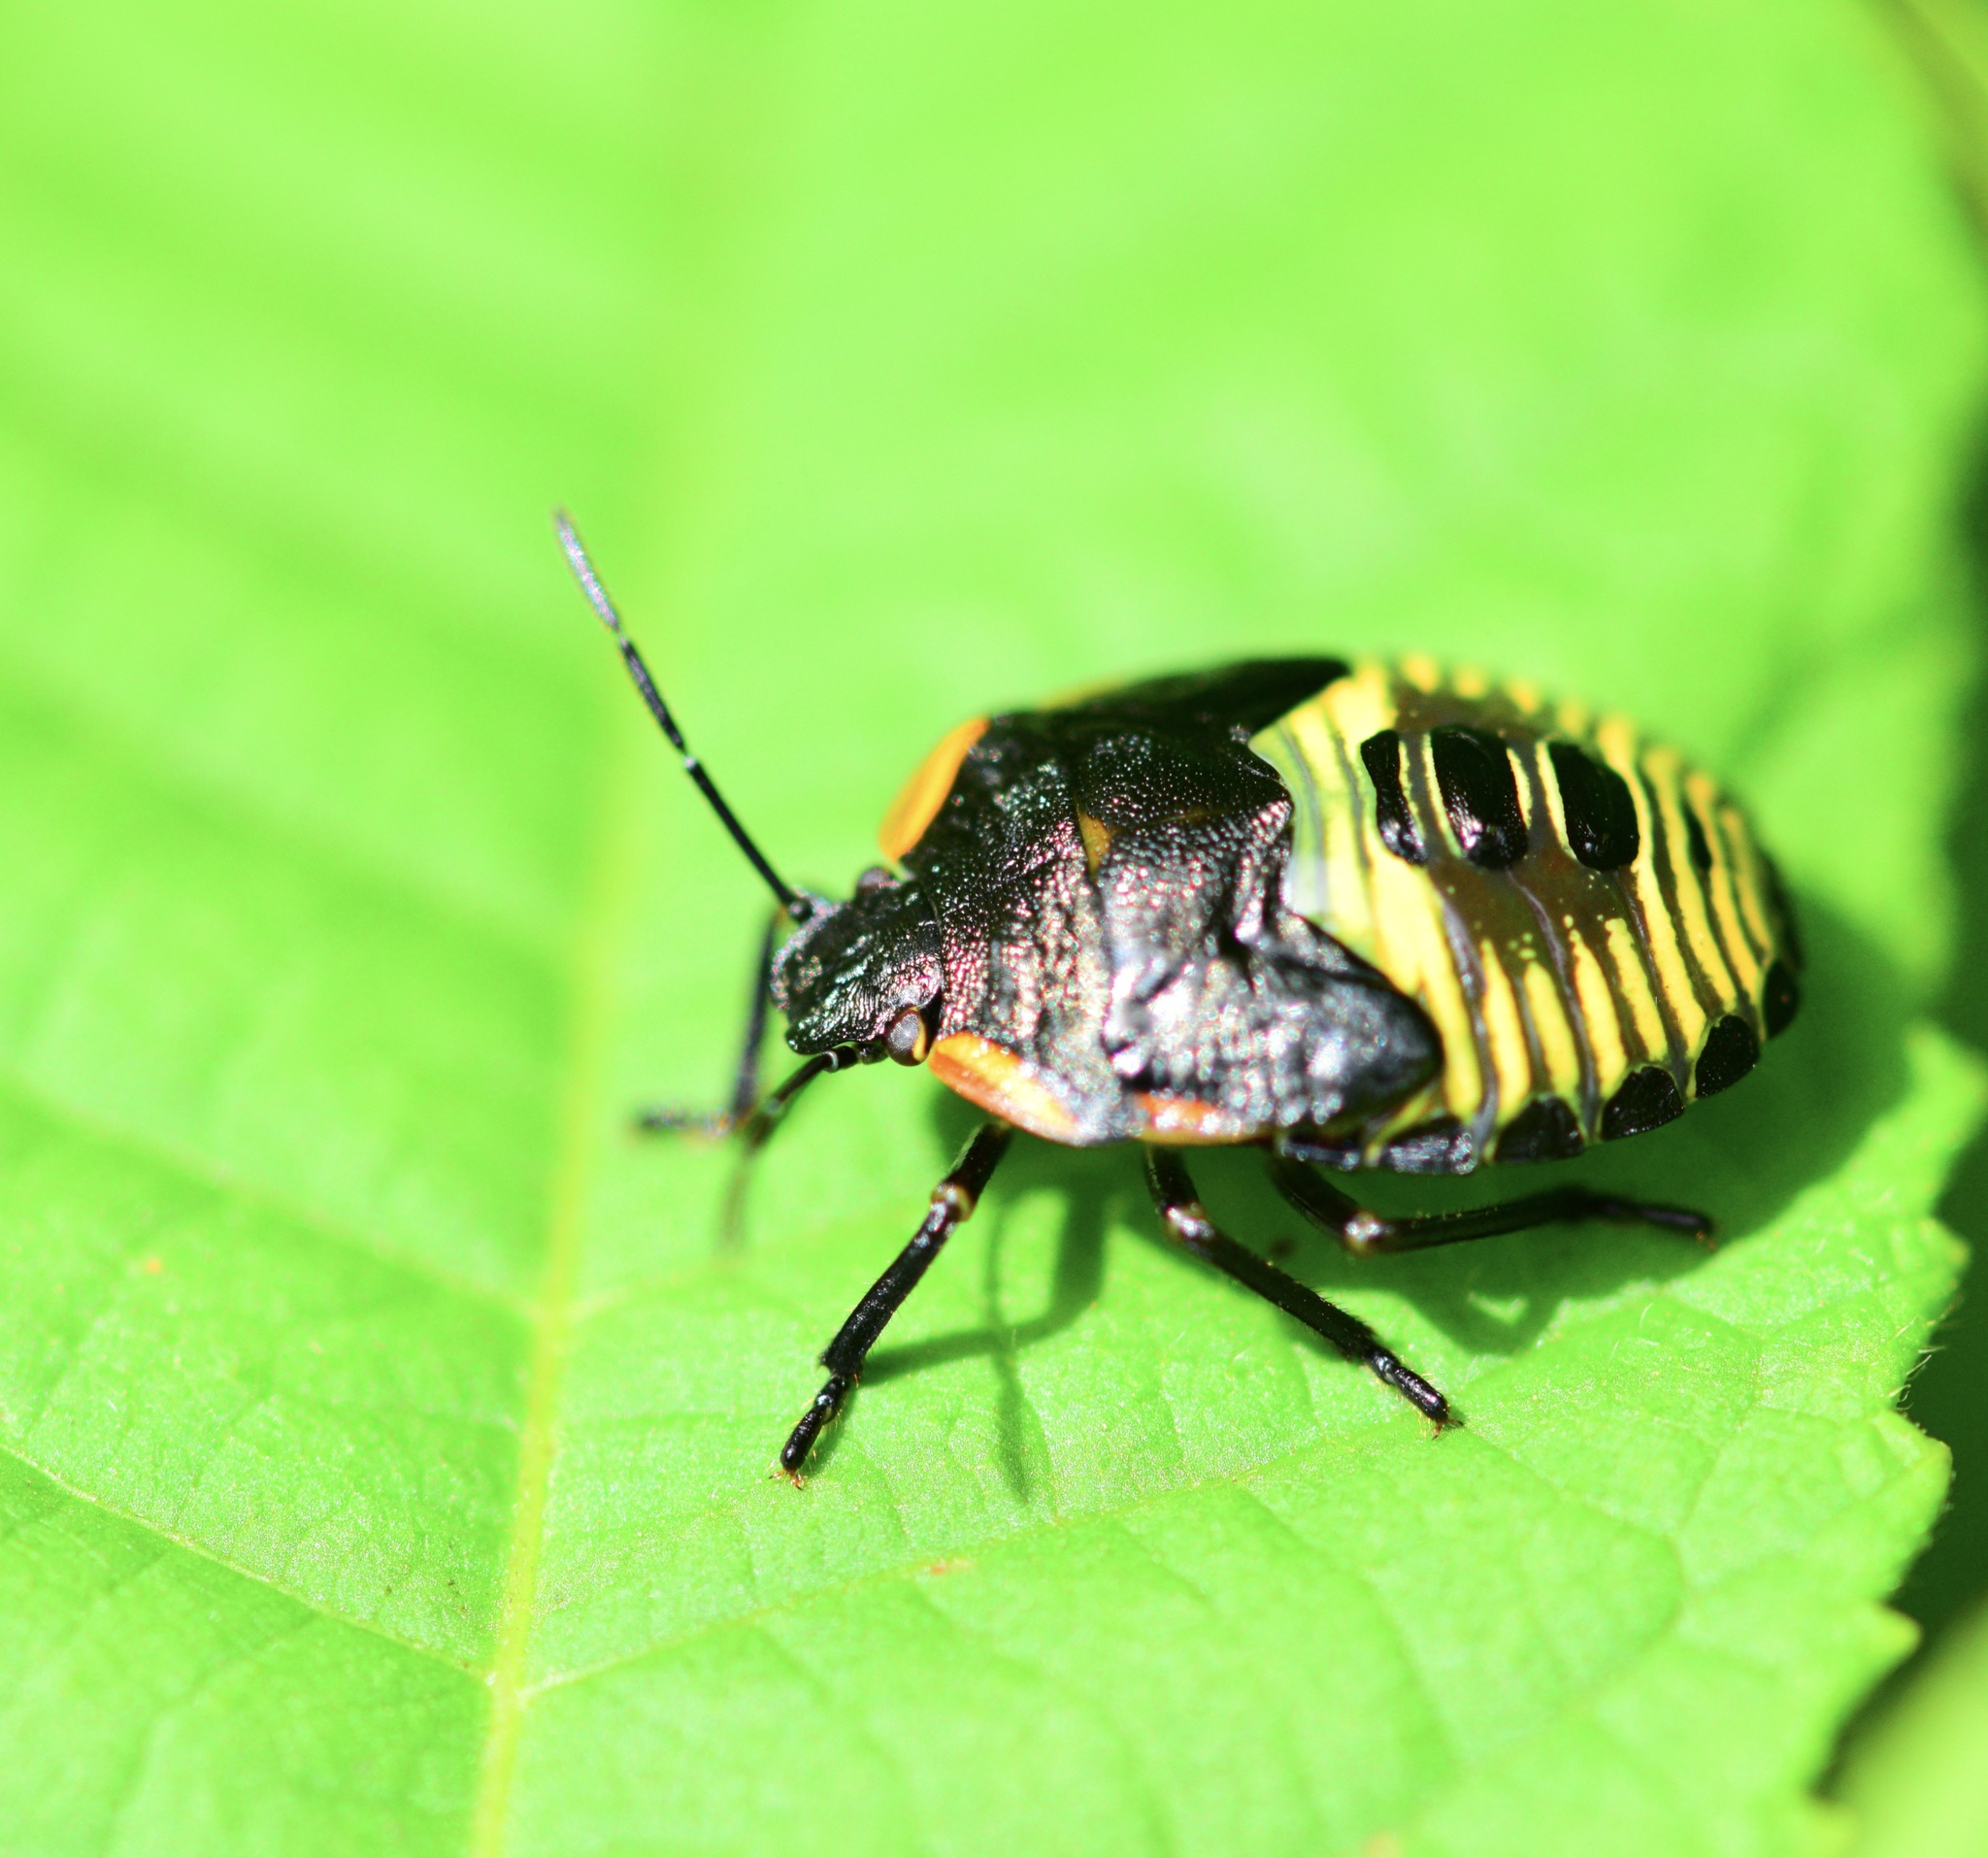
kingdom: Animalia
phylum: Arthropoda
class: Insecta
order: Hemiptera
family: Pentatomidae
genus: Chinavia
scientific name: Chinavia hilaris
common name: Green stink bug
